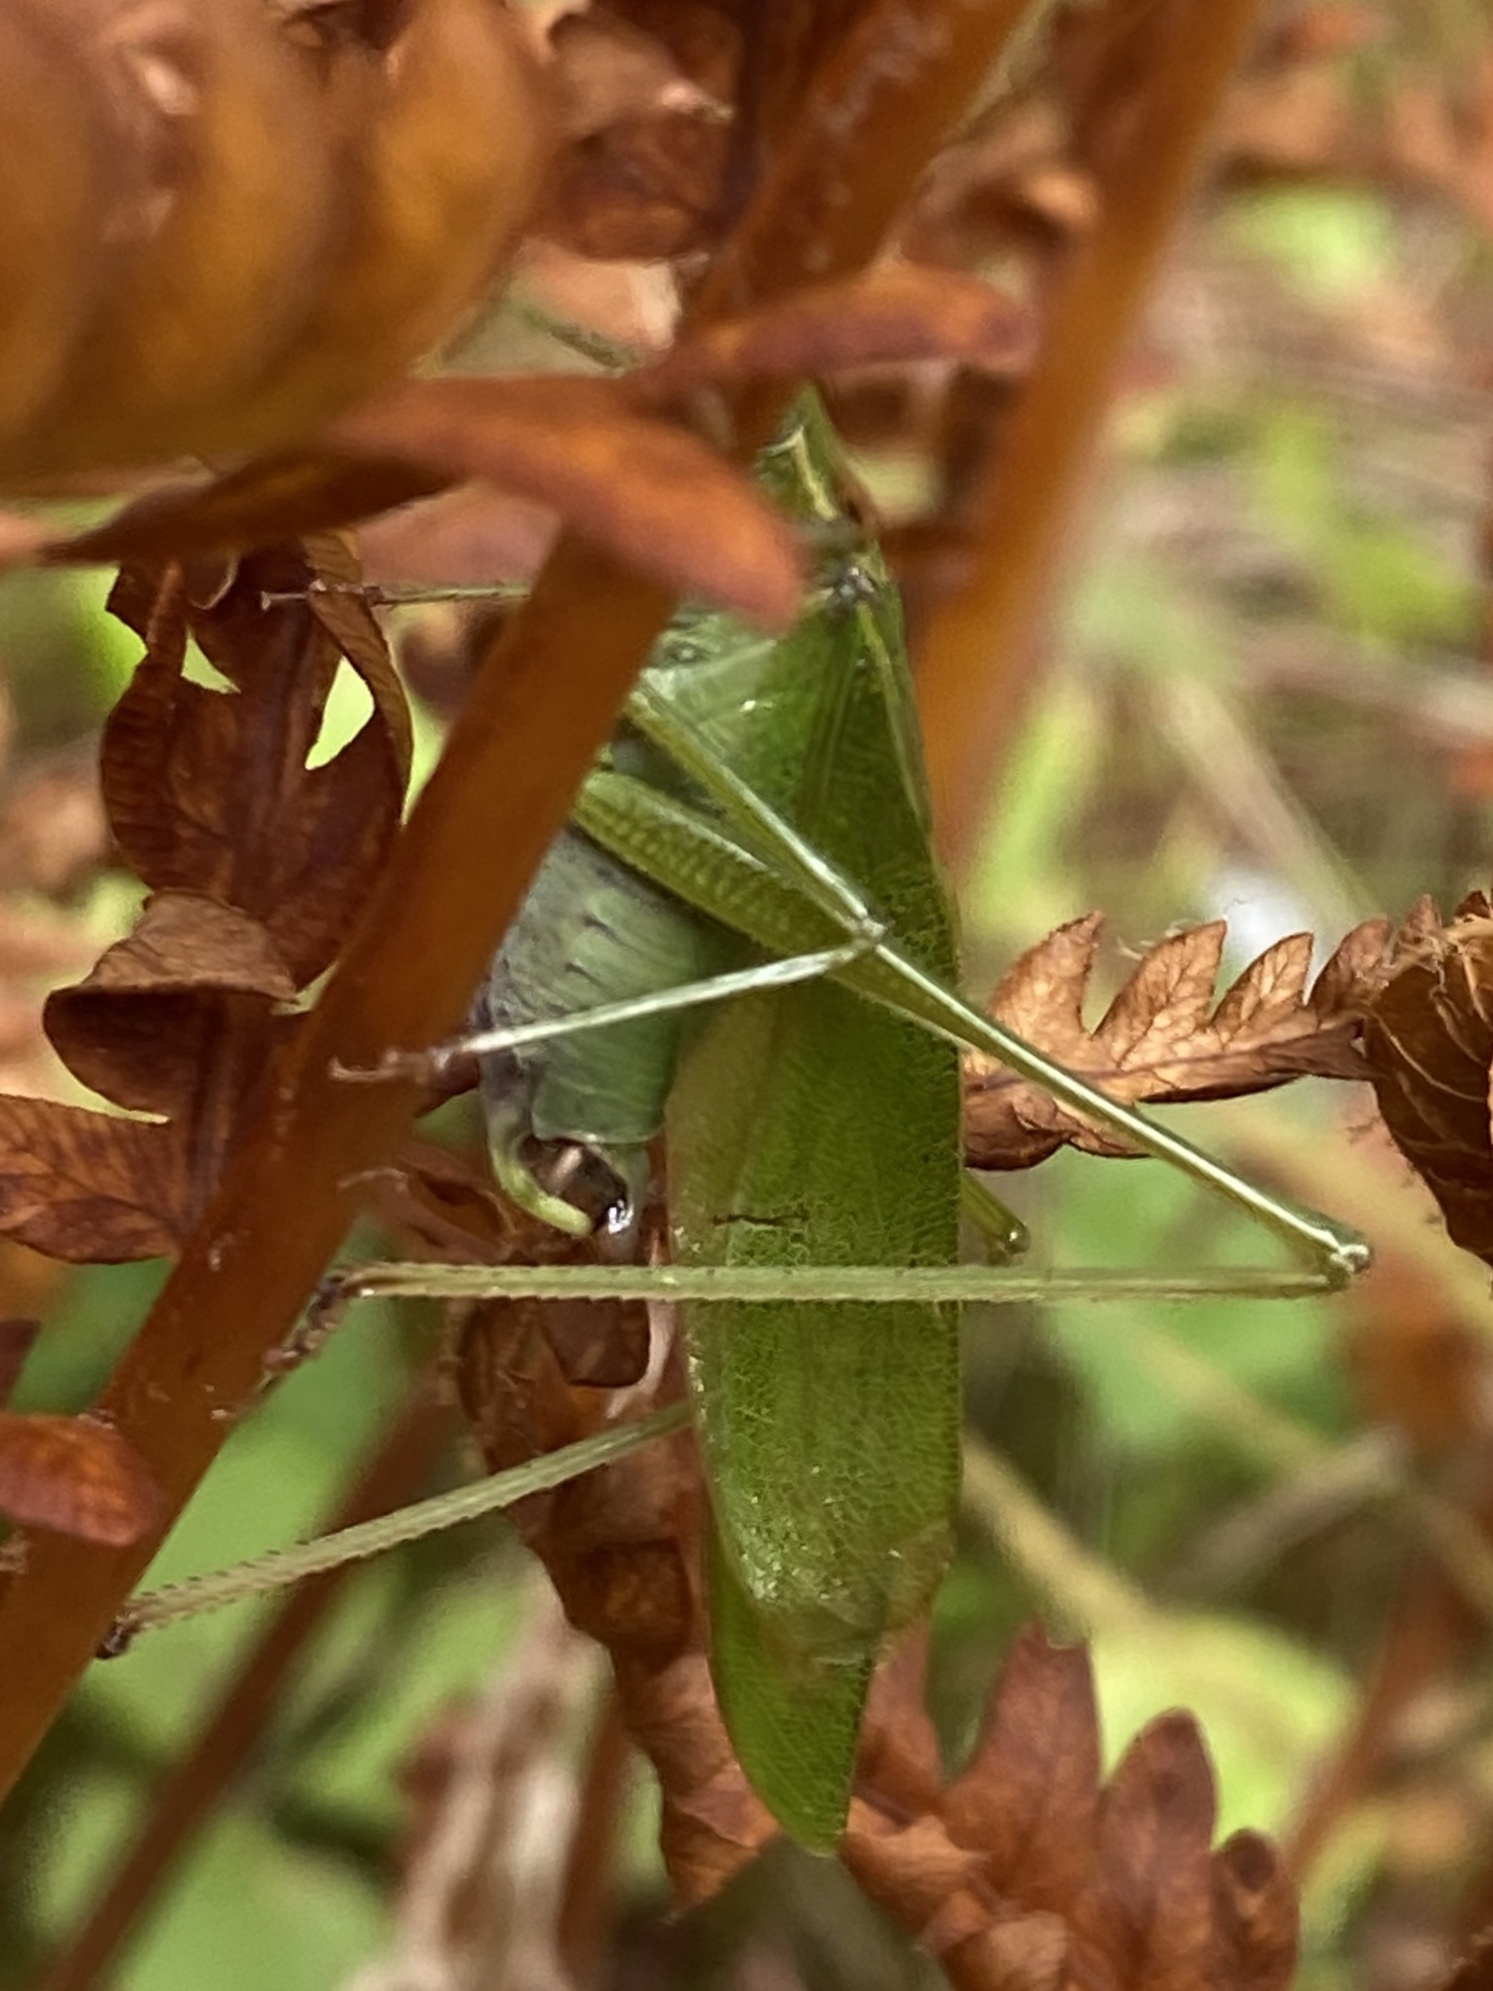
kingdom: Animalia
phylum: Arthropoda
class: Insecta
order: Orthoptera
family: Tettigoniidae
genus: Scudderia
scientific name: Scudderia furcata
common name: Fork-tailed bush katydid
